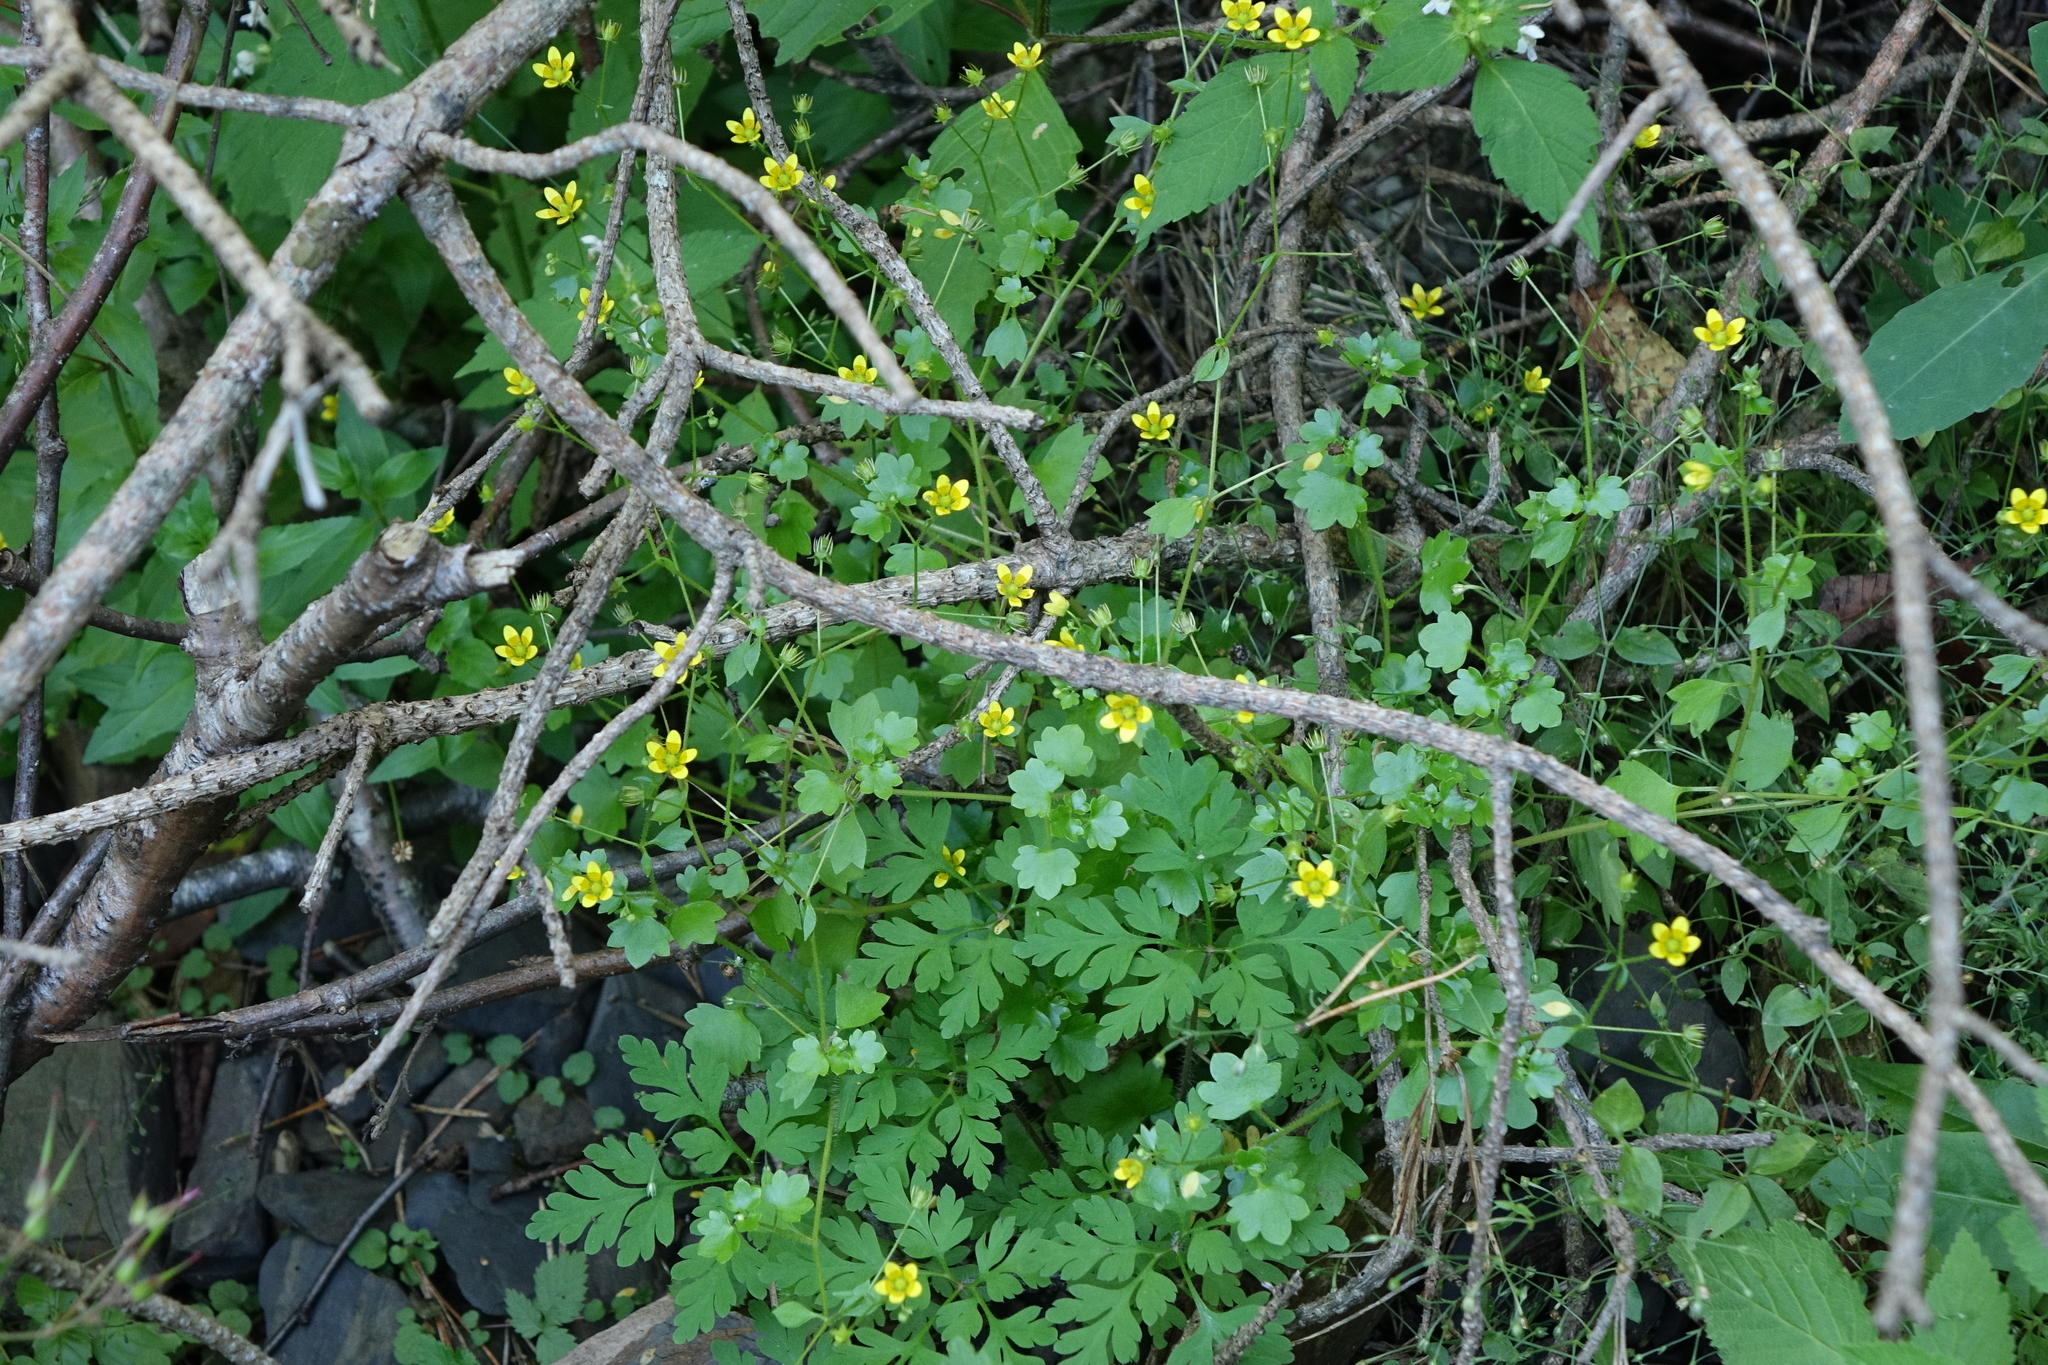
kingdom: Plantae
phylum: Tracheophyta
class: Magnoliopsida
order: Saxifragales
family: Saxifragaceae
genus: Saxifraga
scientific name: Saxifraga cymbalaria
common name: Celandine saxifrage
